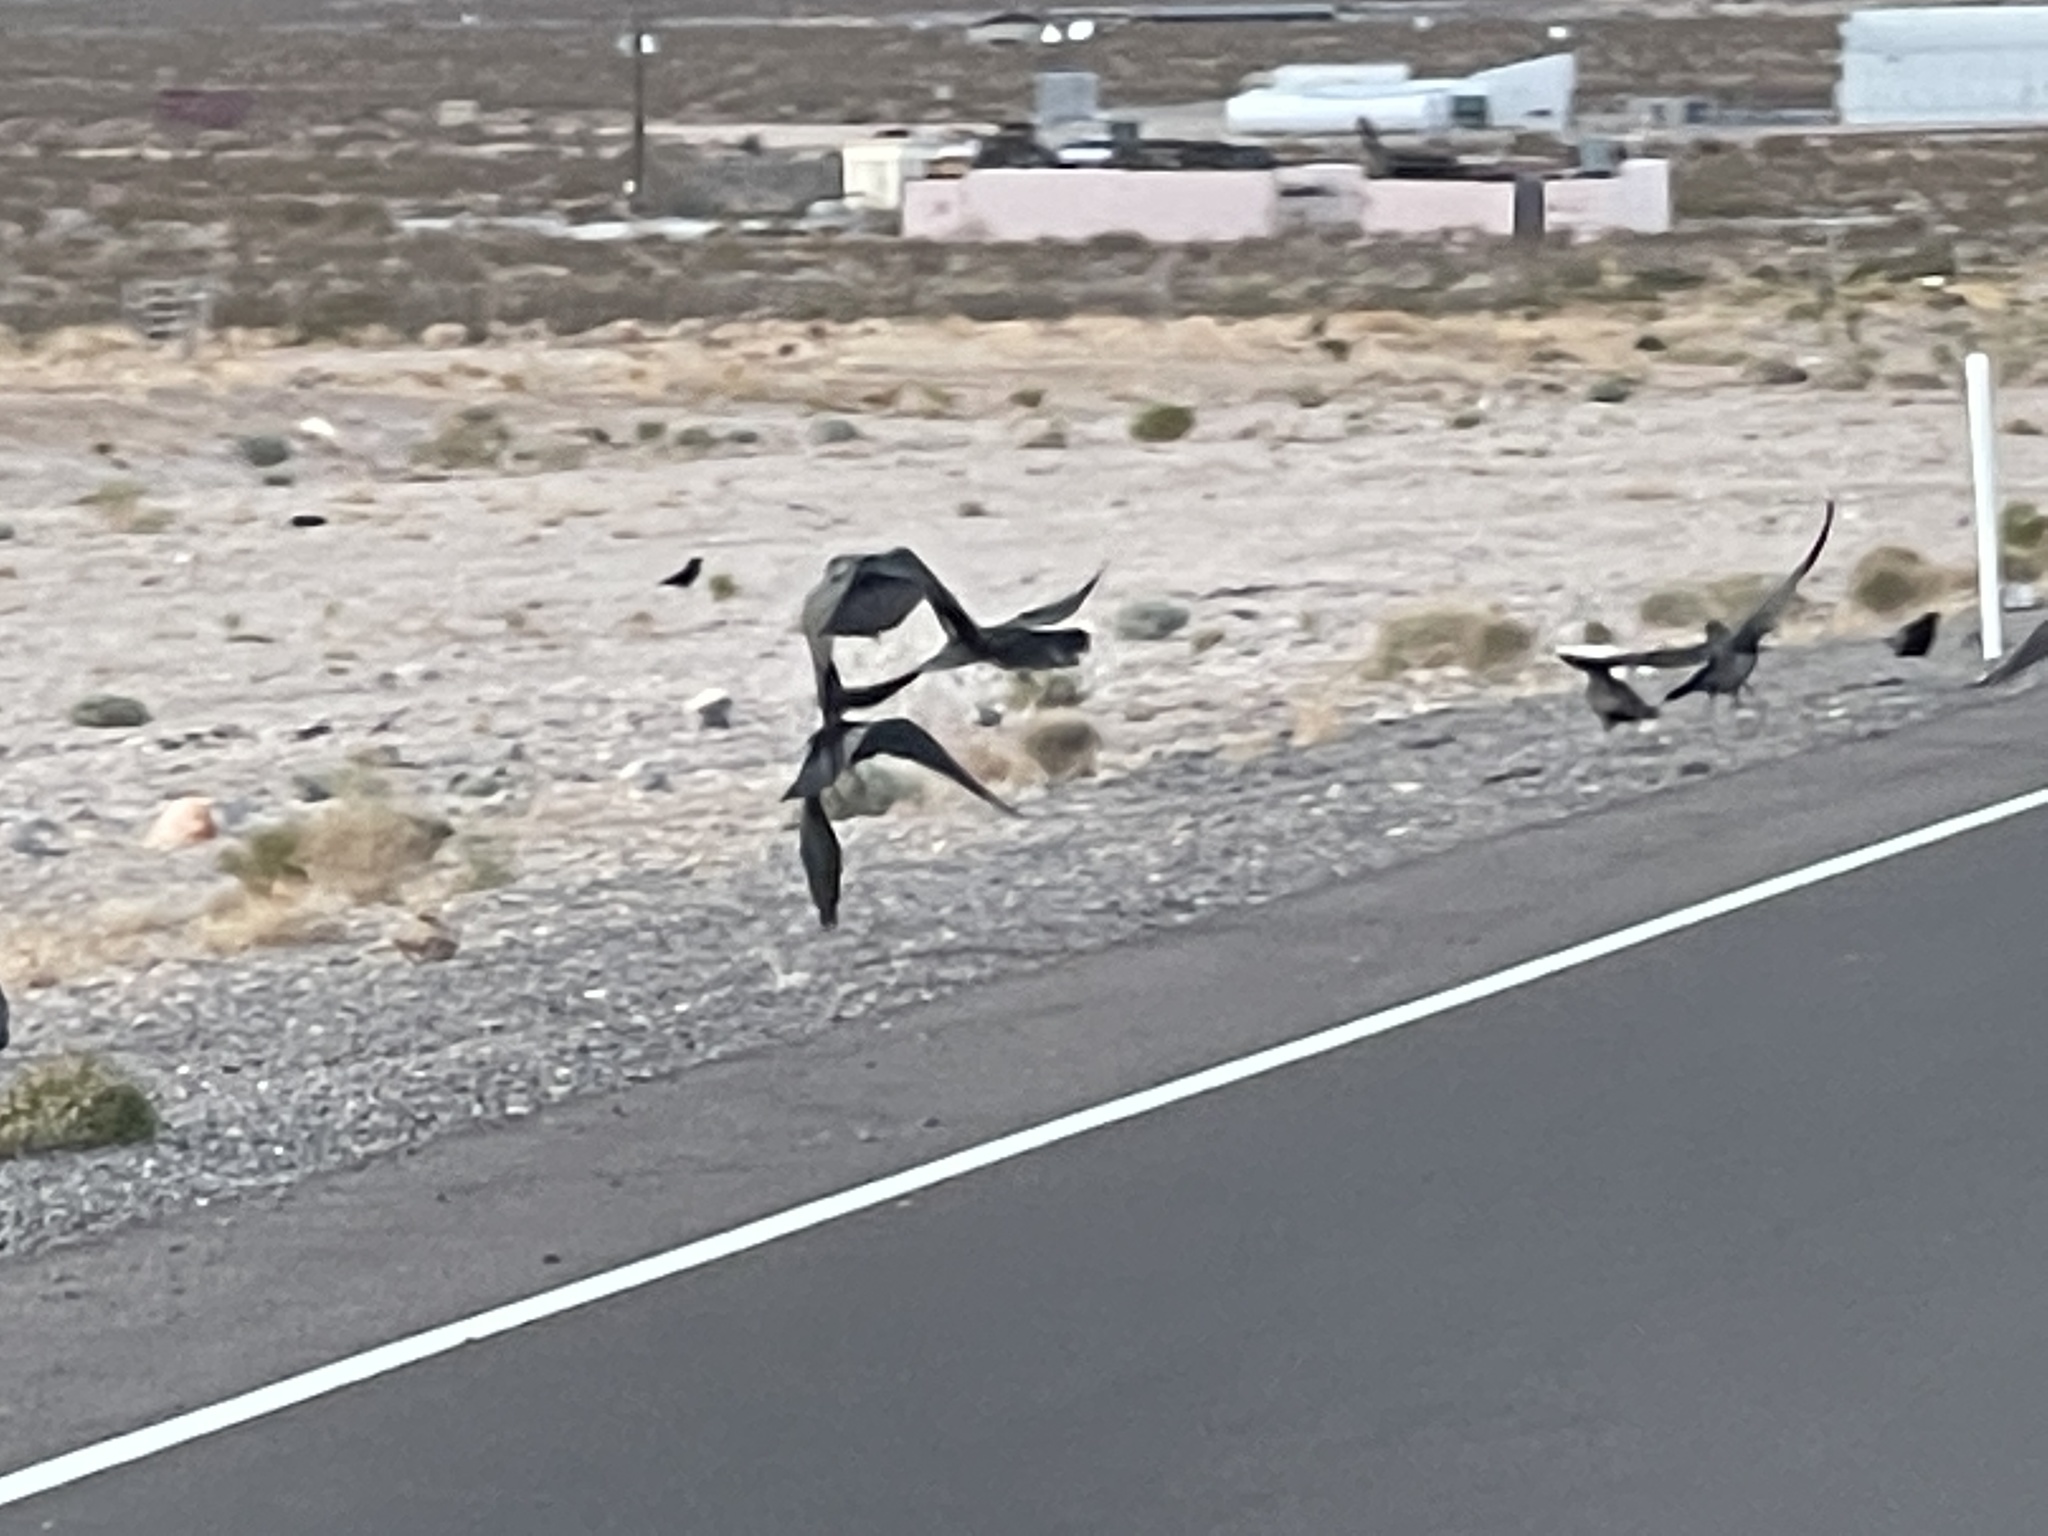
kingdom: Animalia
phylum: Chordata
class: Aves
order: Passeriformes
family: Corvidae
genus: Corvus
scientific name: Corvus corax
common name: Common raven
